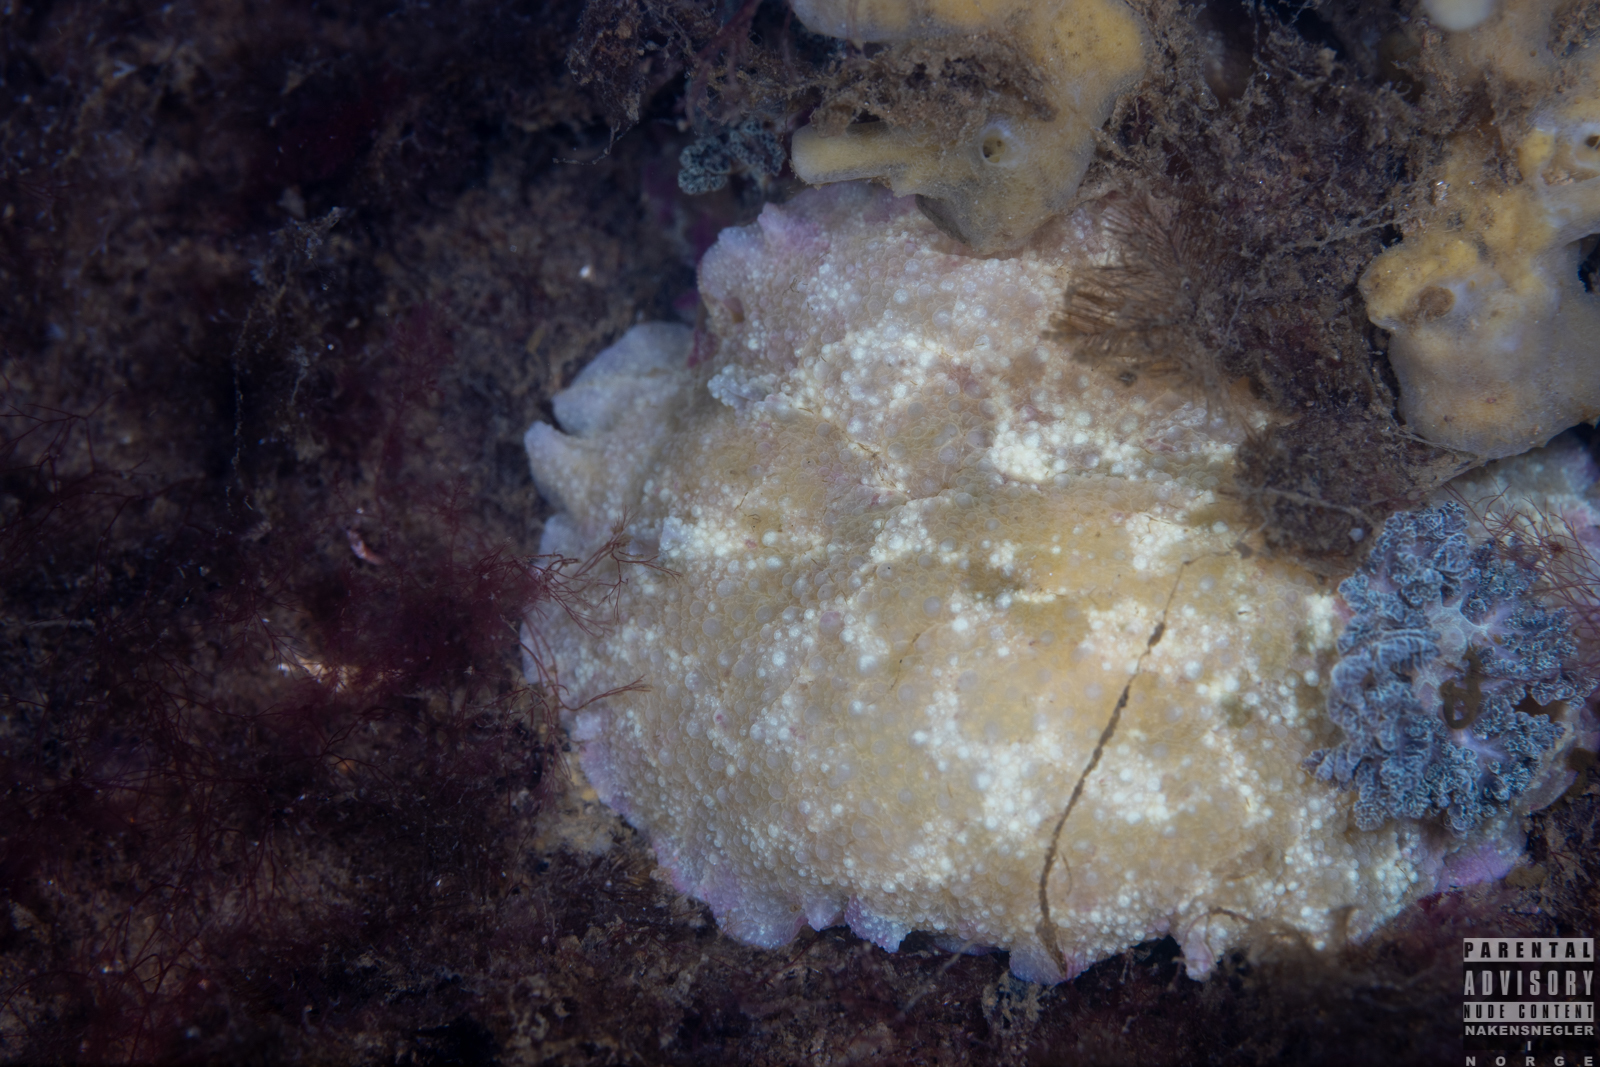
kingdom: Animalia
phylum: Mollusca
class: Gastropoda
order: Nudibranchia
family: Dorididae
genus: Doris
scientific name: Doris pseudoargus
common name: Sea lemon
